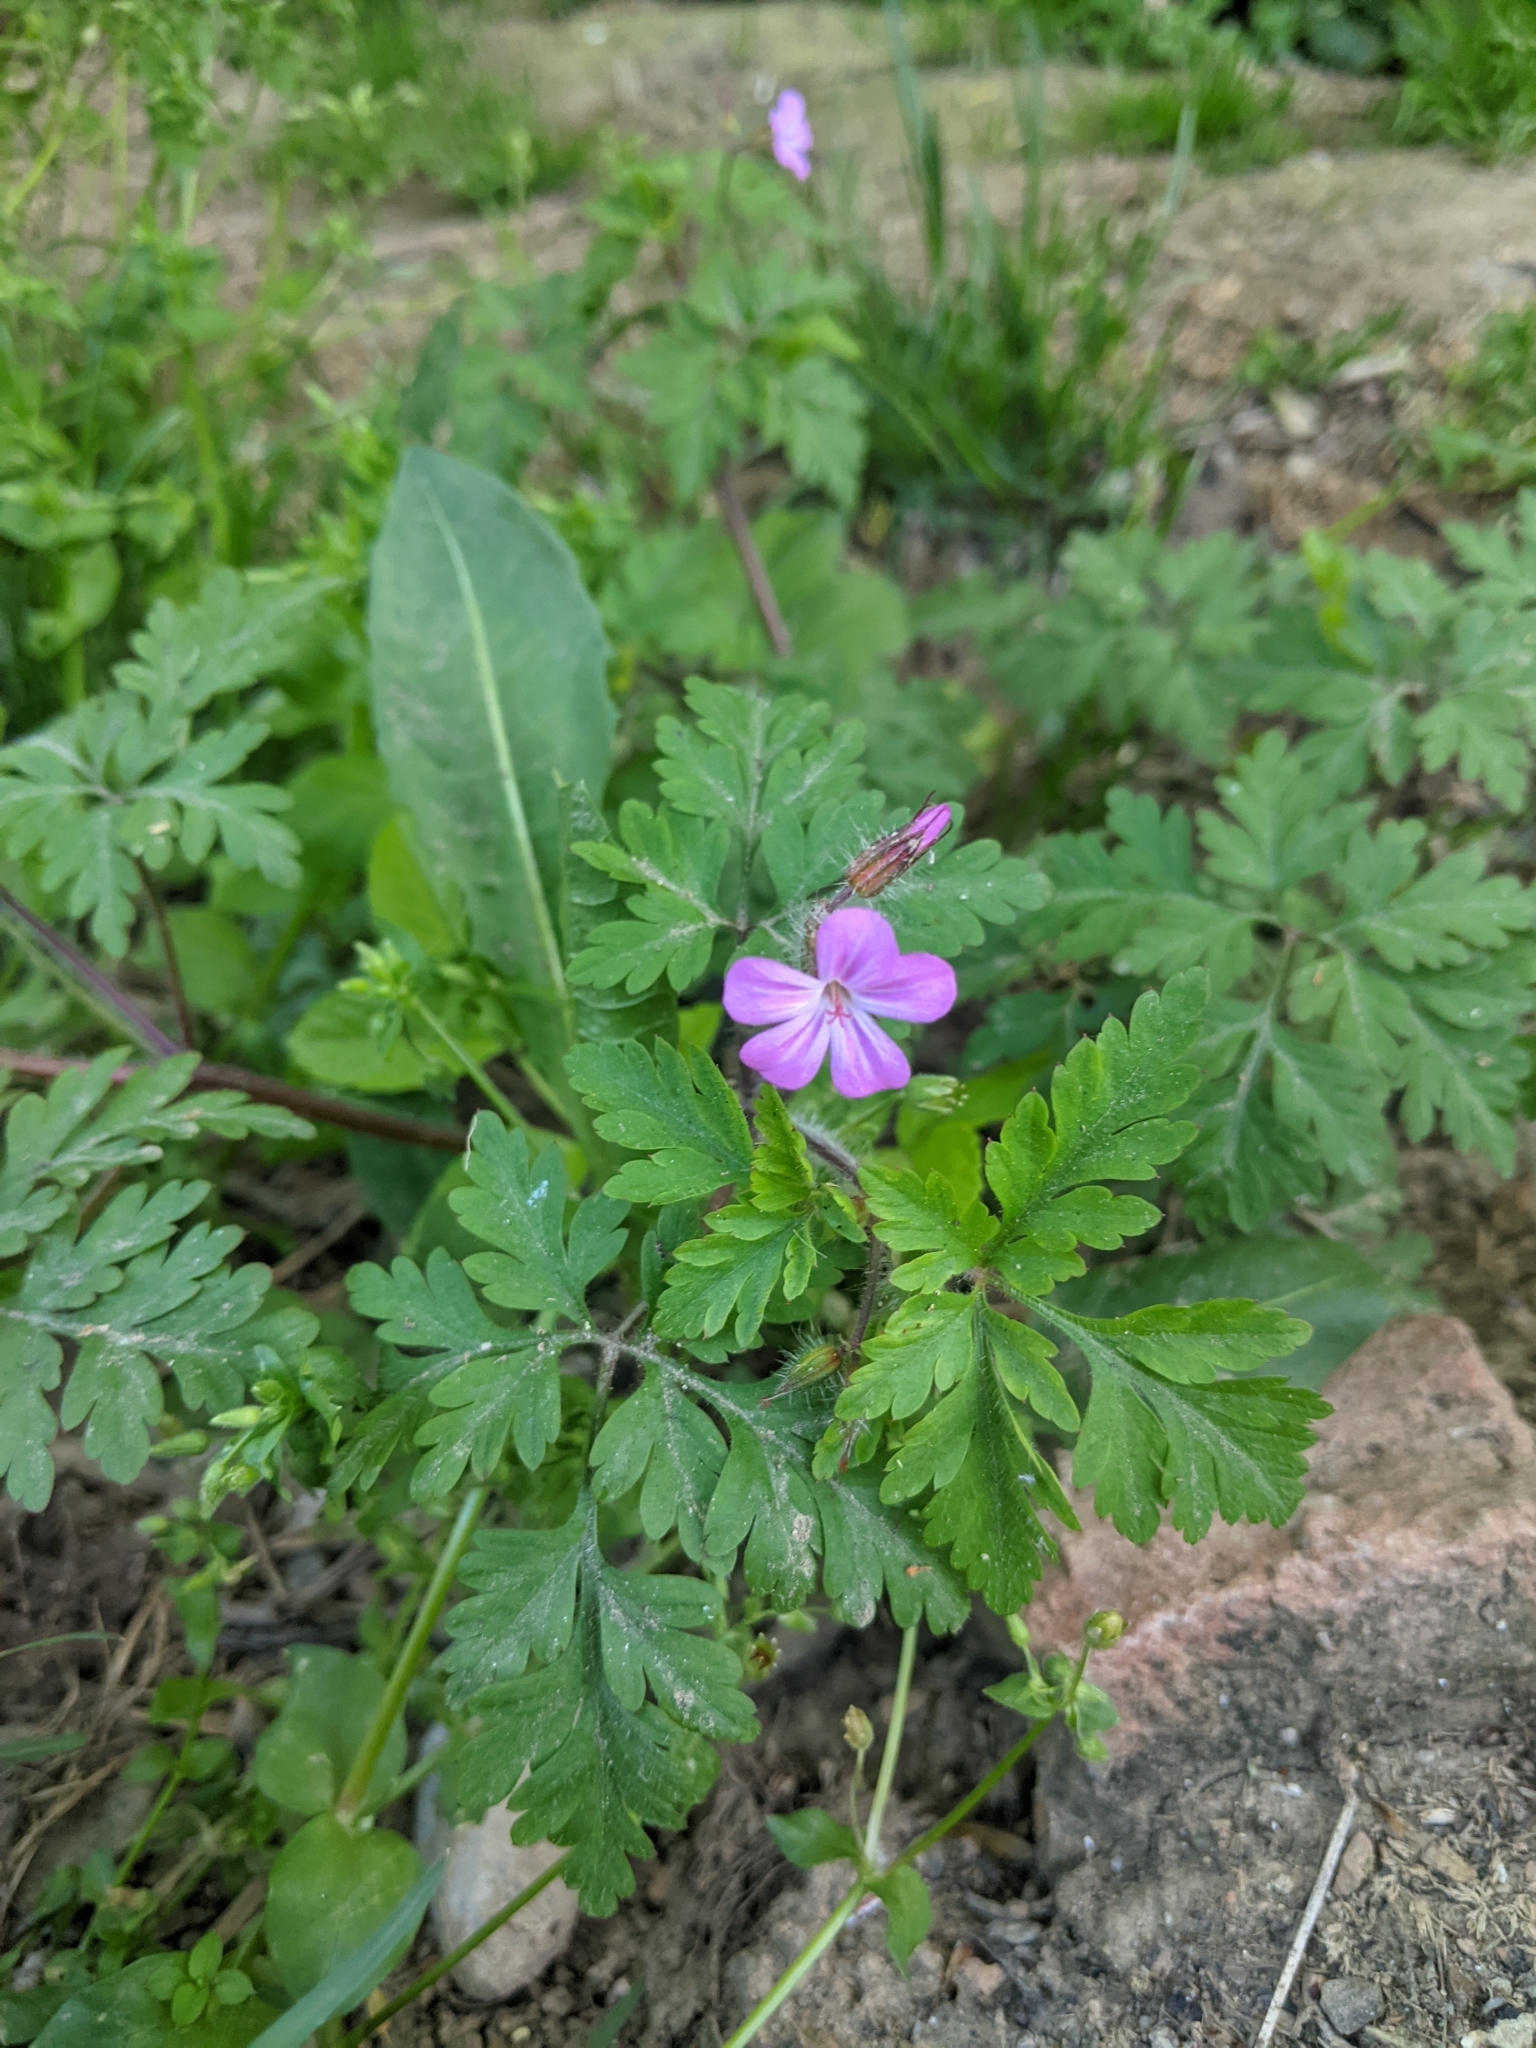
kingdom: Plantae
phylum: Tracheophyta
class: Magnoliopsida
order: Geraniales
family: Geraniaceae
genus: Geranium
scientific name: Geranium robertianum
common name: Herb-robert
